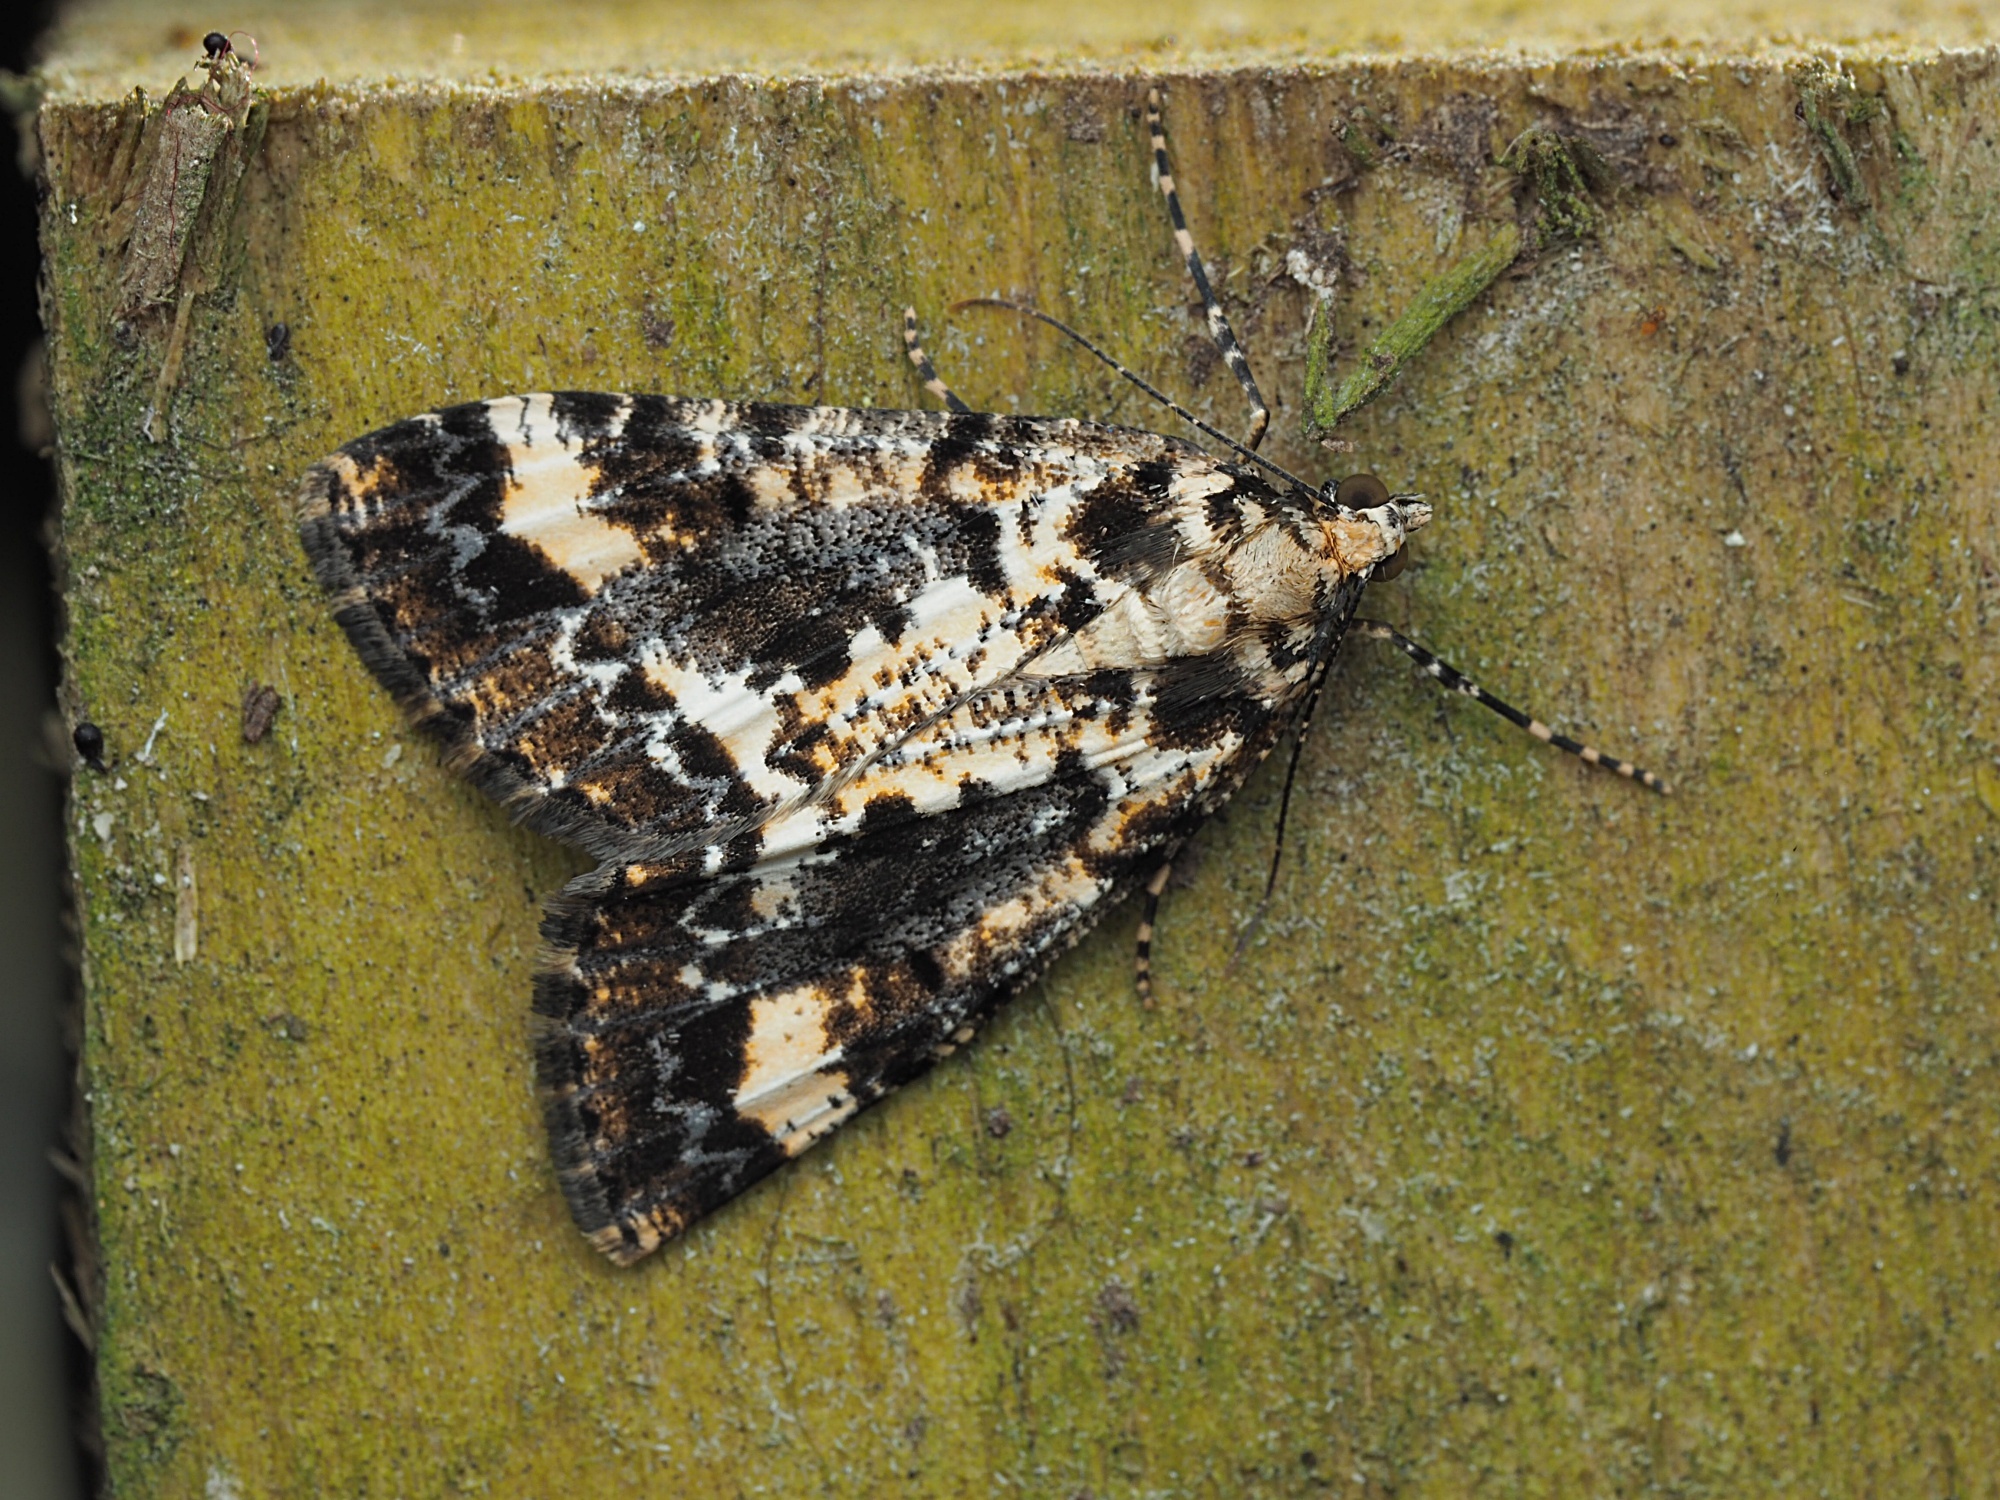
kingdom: Animalia
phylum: Arthropoda
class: Insecta
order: Lepidoptera
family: Geometridae
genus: Pseudocoremia
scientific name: Pseudocoremia leucelaea
